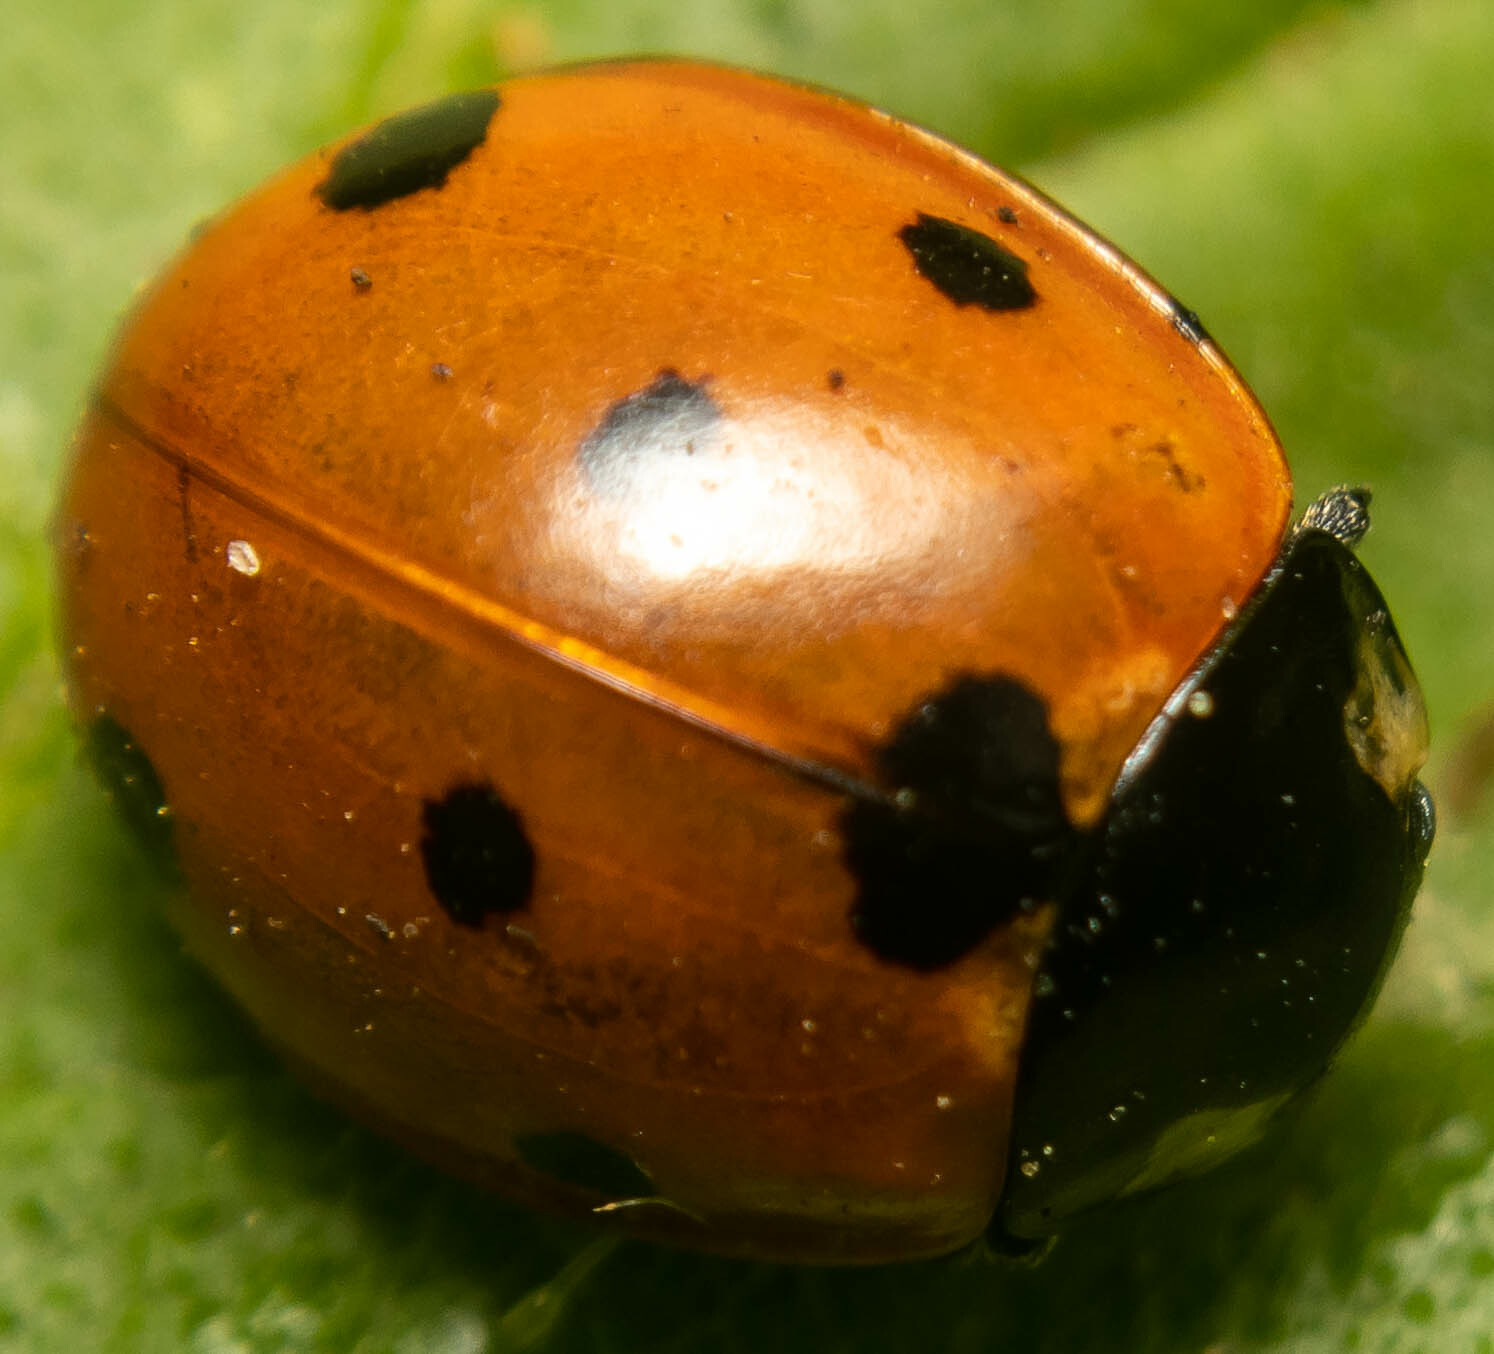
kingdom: Animalia
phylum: Arthropoda
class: Insecta
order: Coleoptera
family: Coccinellidae
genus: Coccinella
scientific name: Coccinella septempunctata
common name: Sevenspotted lady beetle
